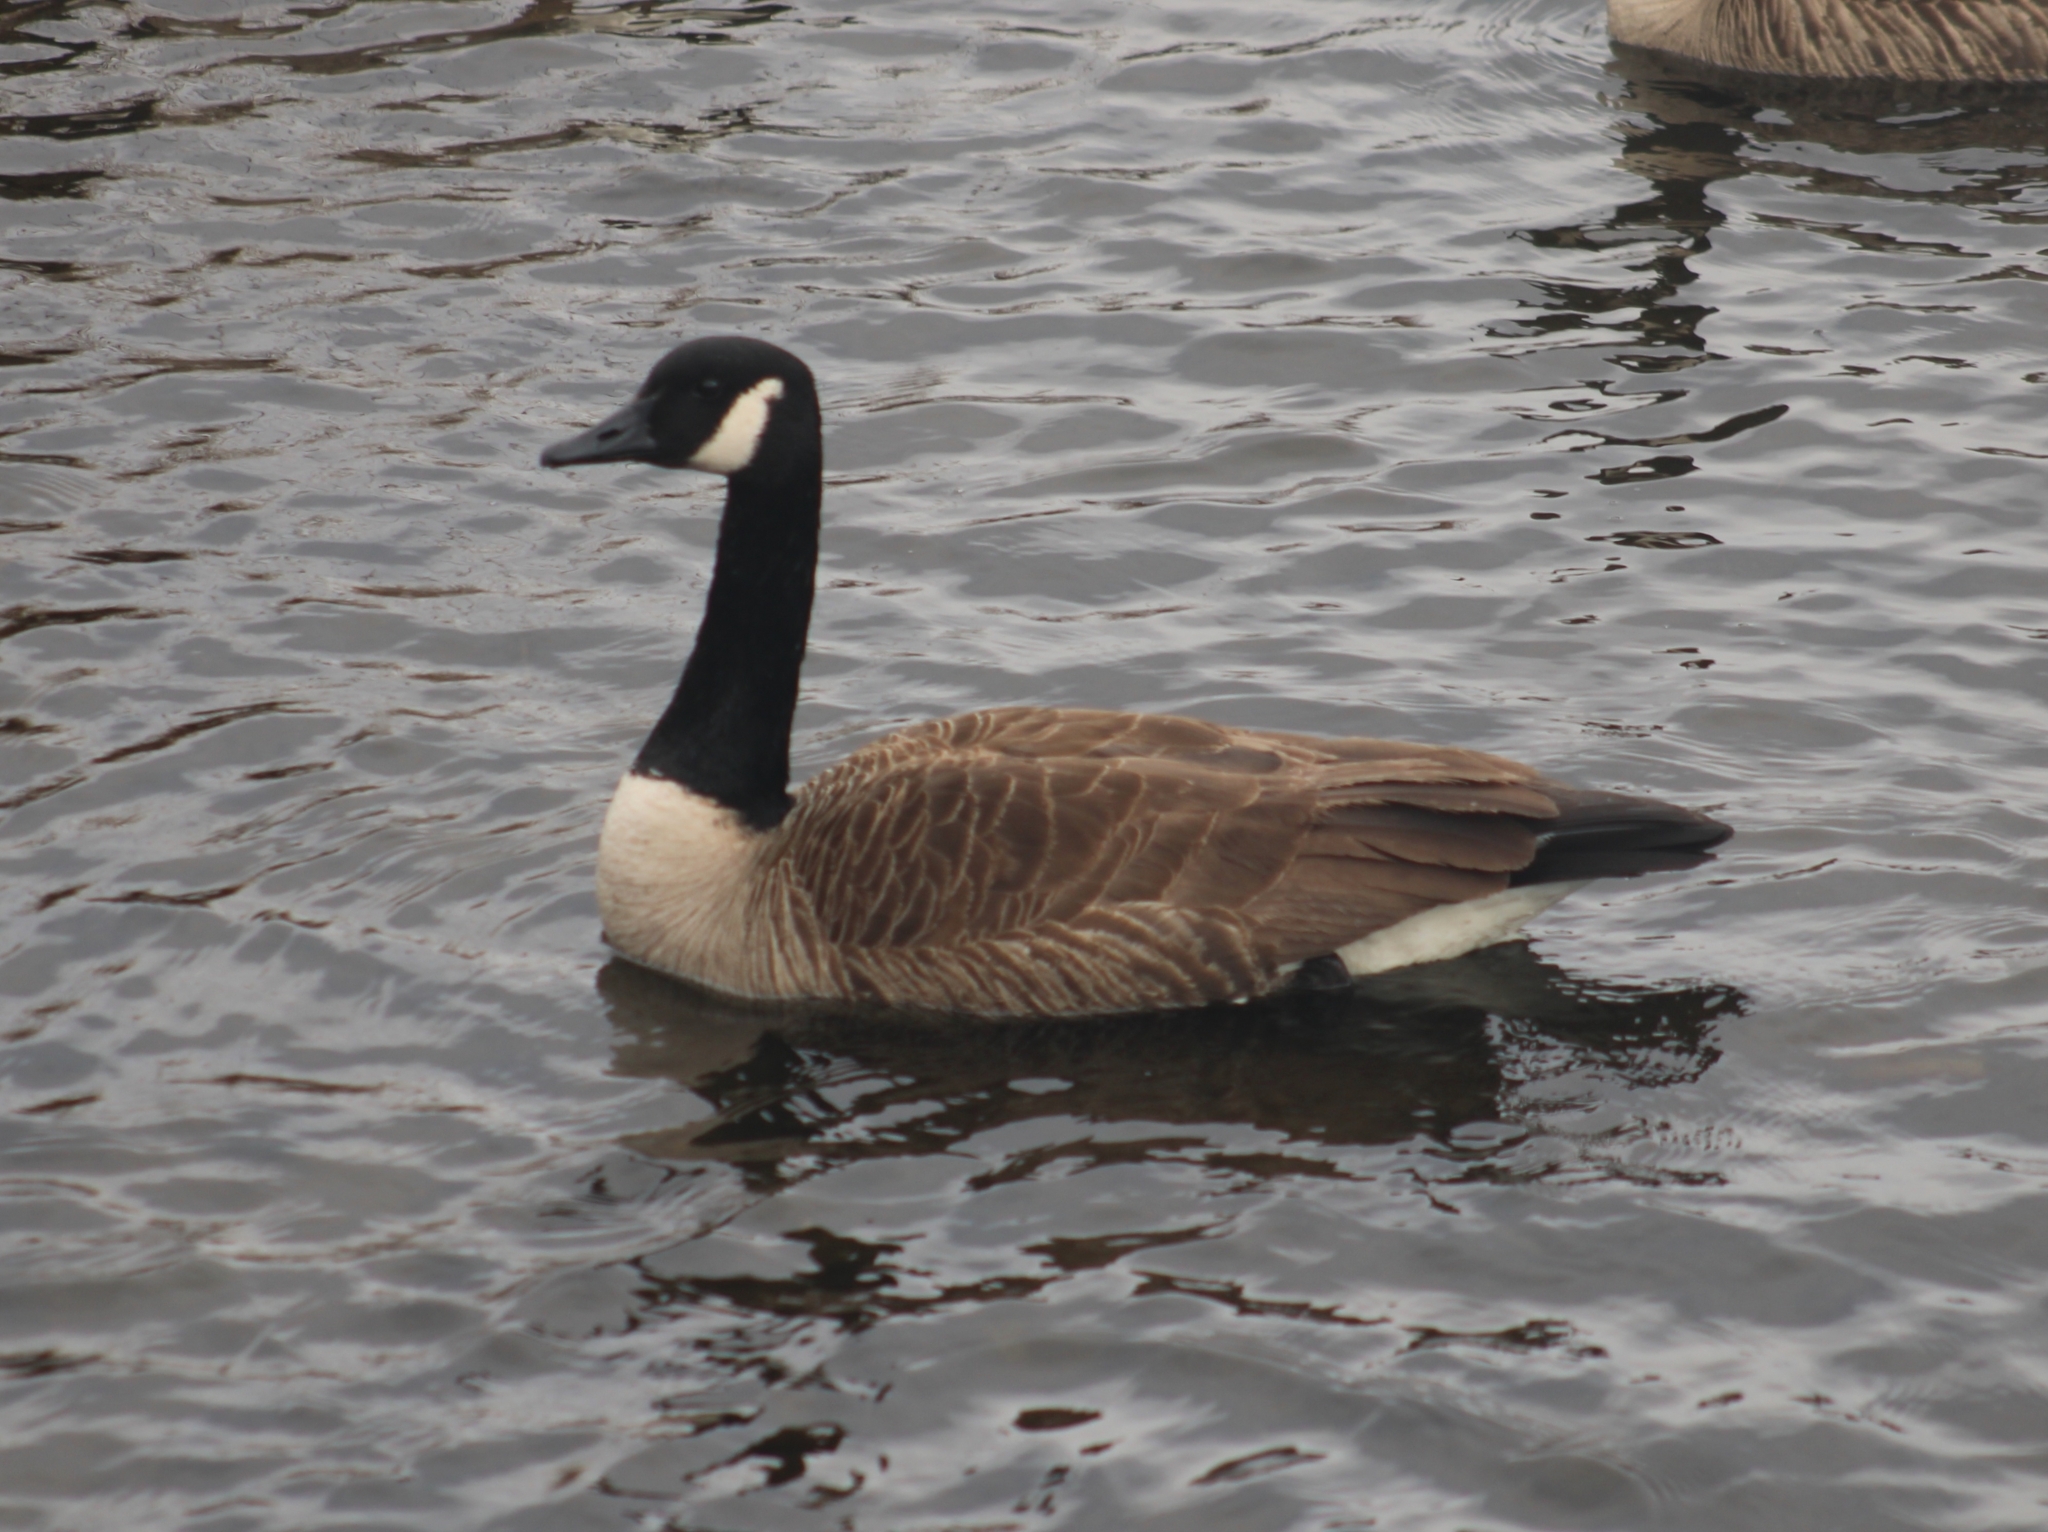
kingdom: Animalia
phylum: Chordata
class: Aves
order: Anseriformes
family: Anatidae
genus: Branta
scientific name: Branta canadensis
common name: Canada goose
